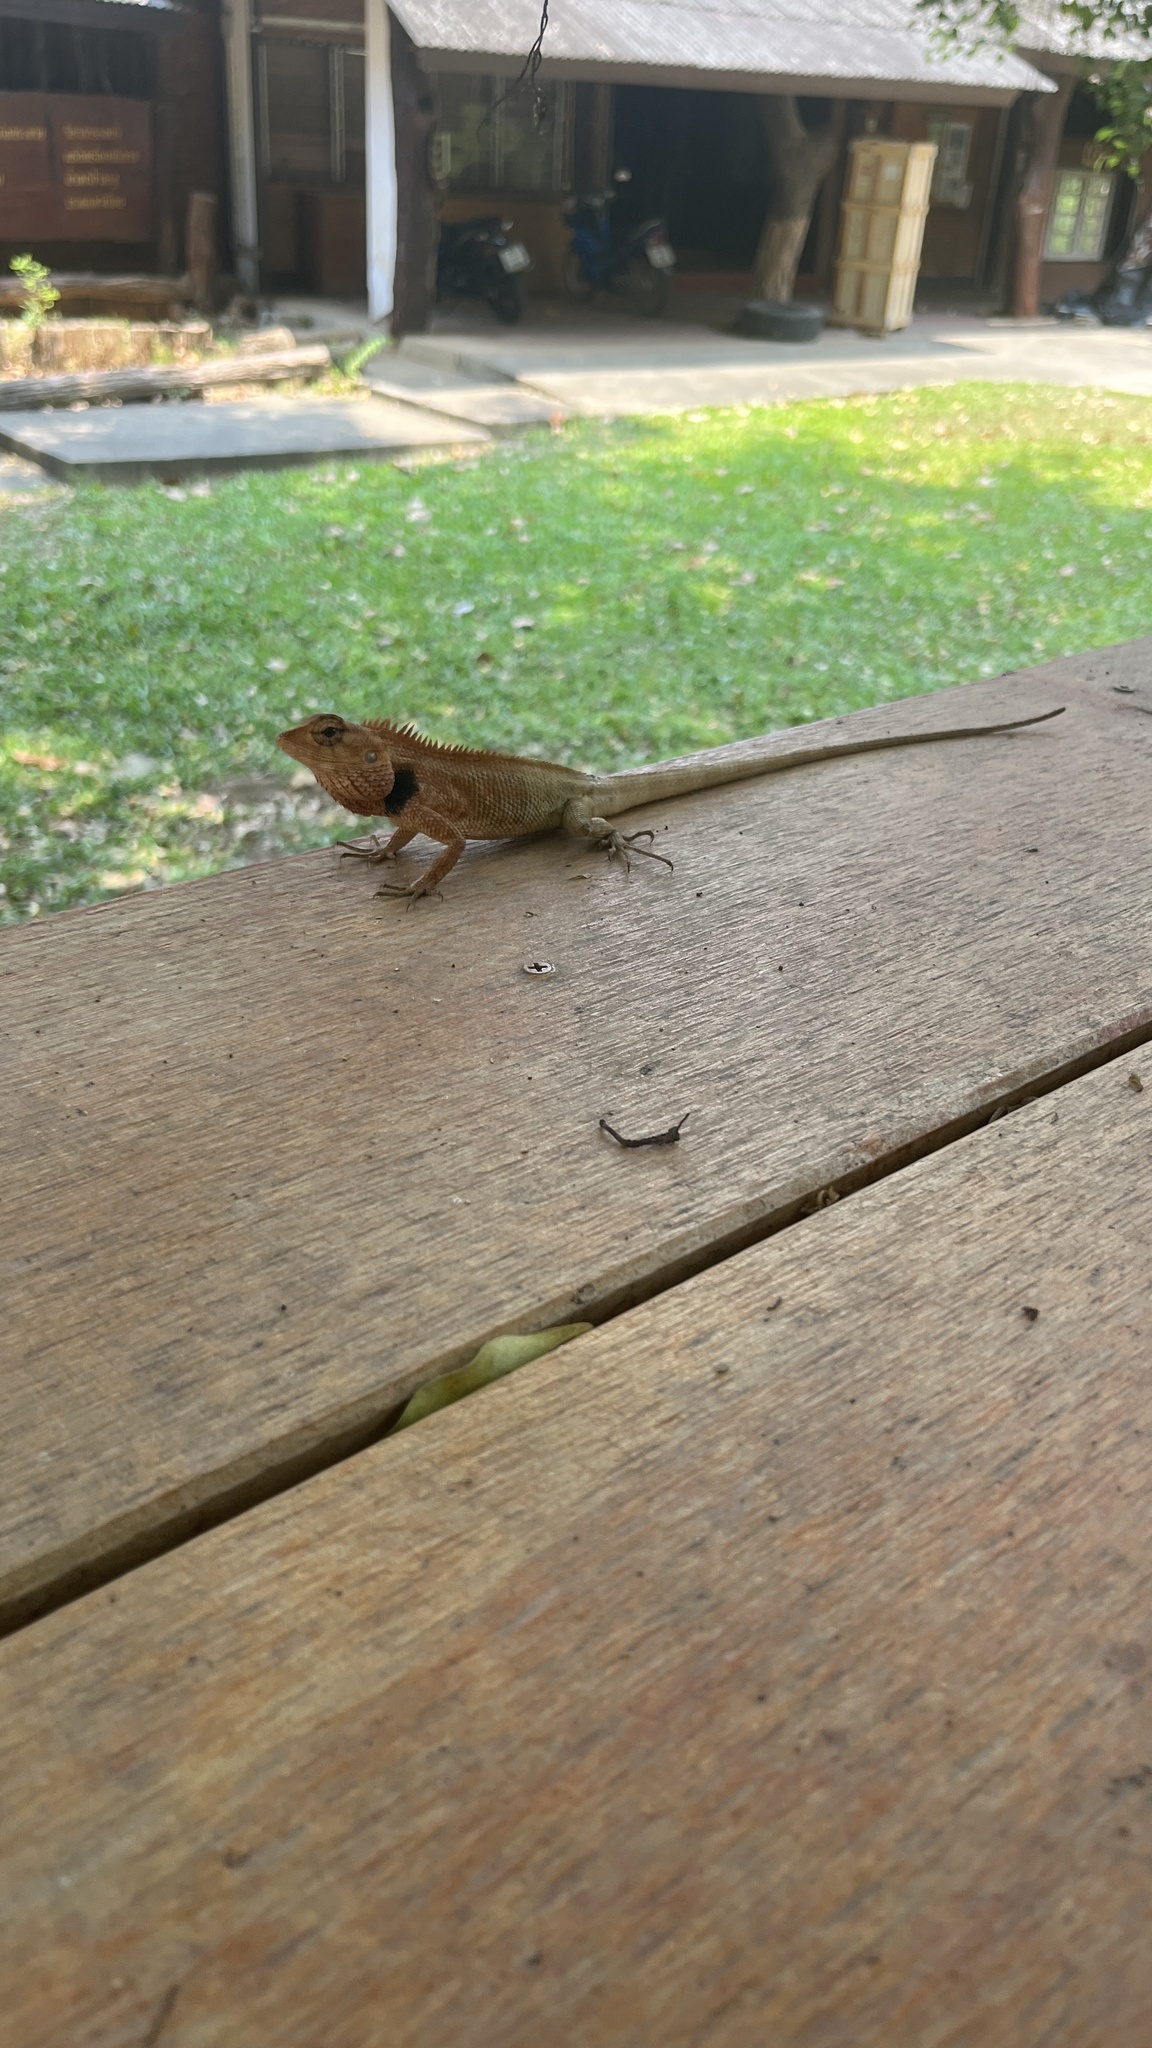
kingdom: Animalia
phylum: Chordata
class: Squamata
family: Agamidae
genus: Calotes
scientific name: Calotes versicolor
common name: Oriental garden lizard
